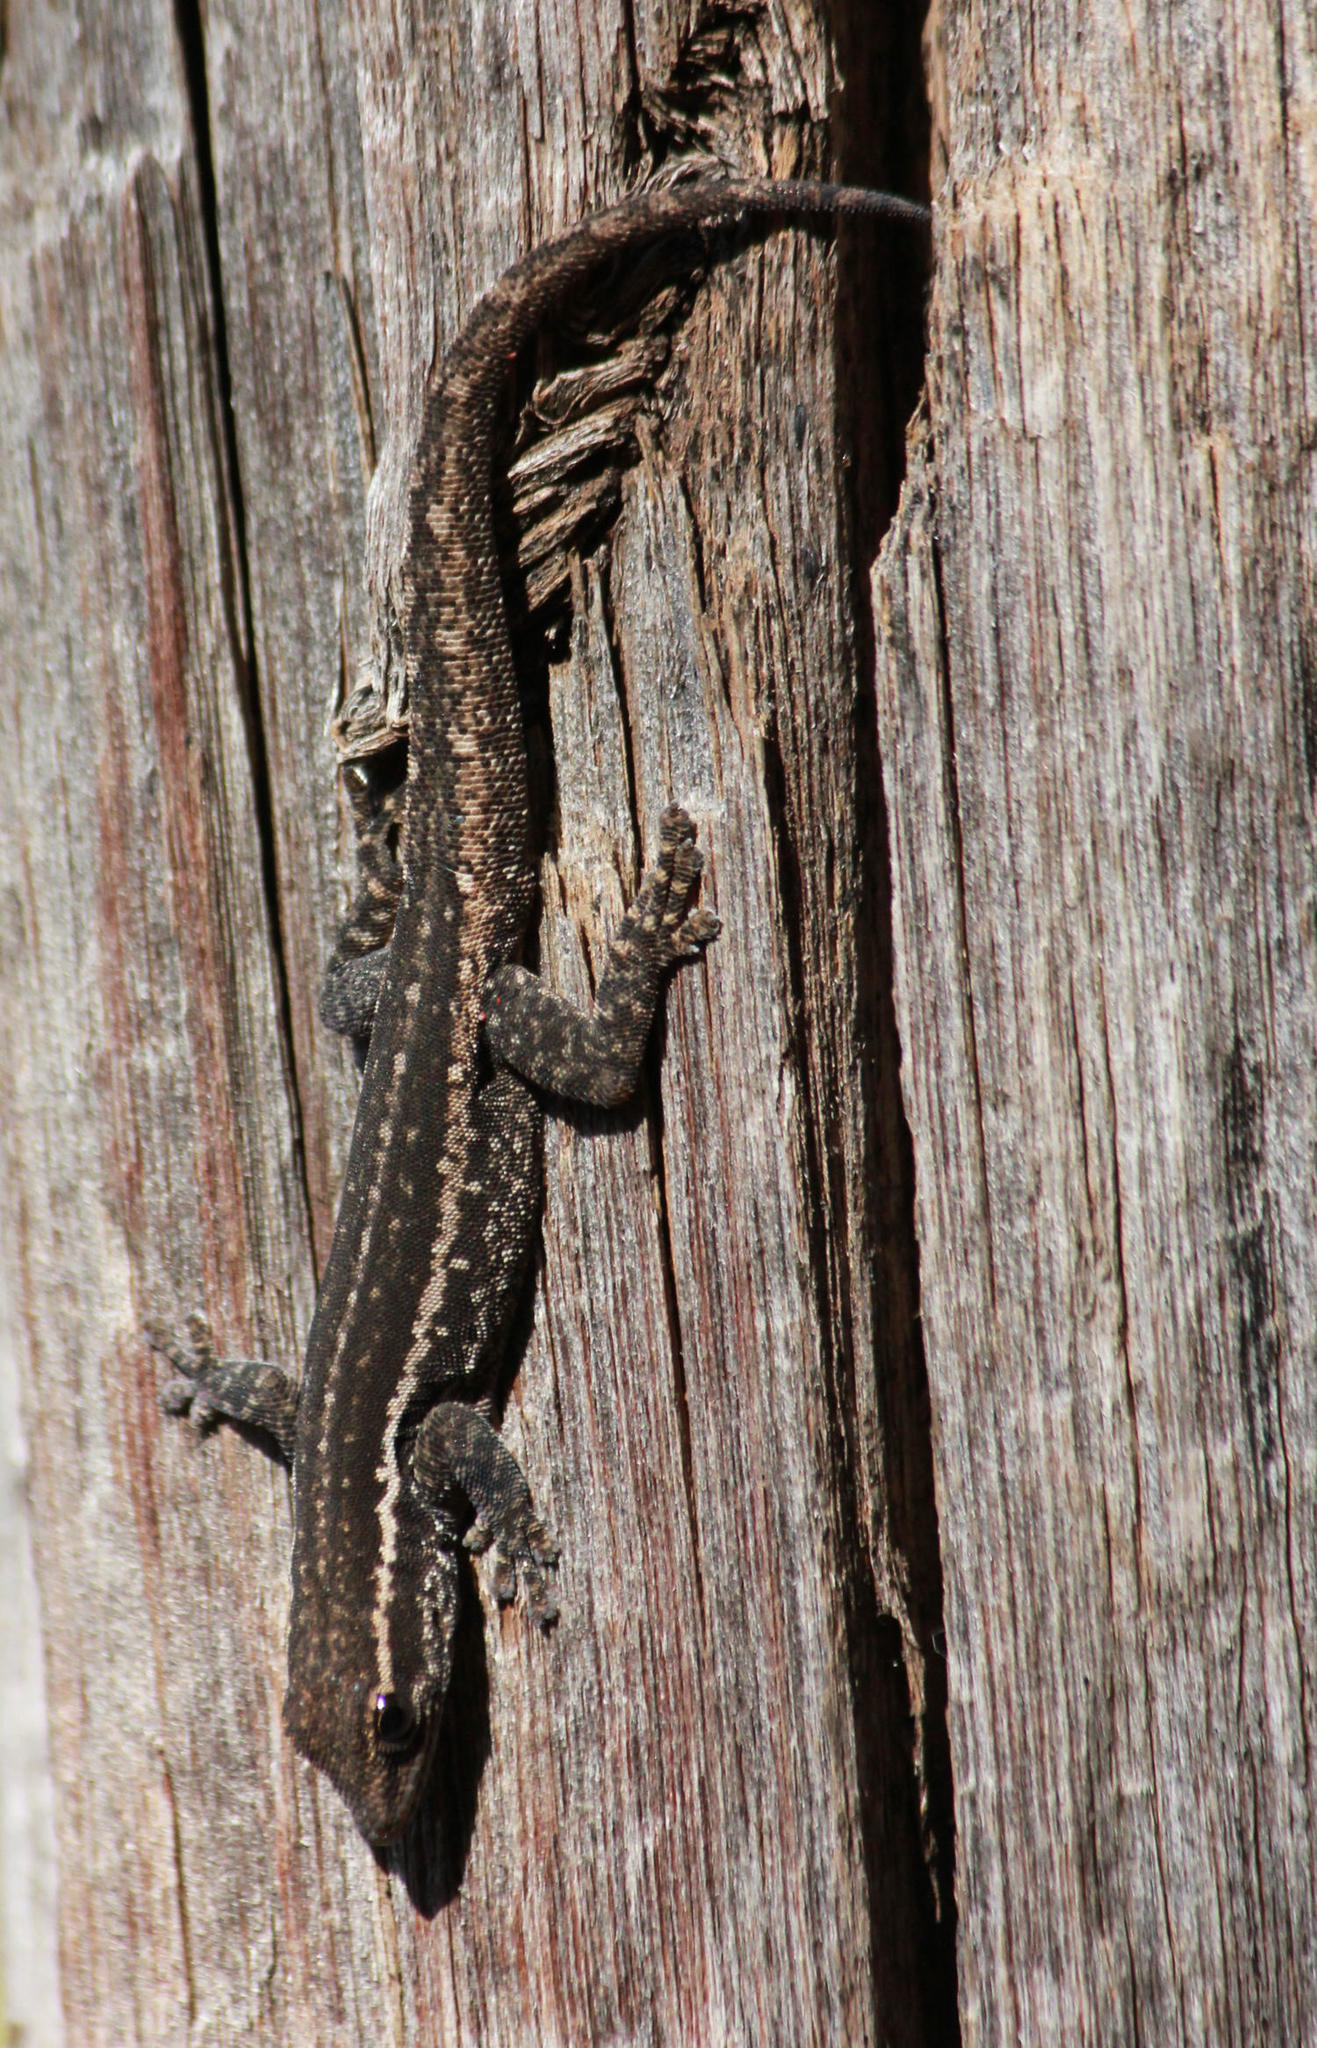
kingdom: Animalia
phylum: Chordata
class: Squamata
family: Gekkonidae
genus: Lygodactylus
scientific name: Lygodactylus capensis
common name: Cape dwarf gecko
